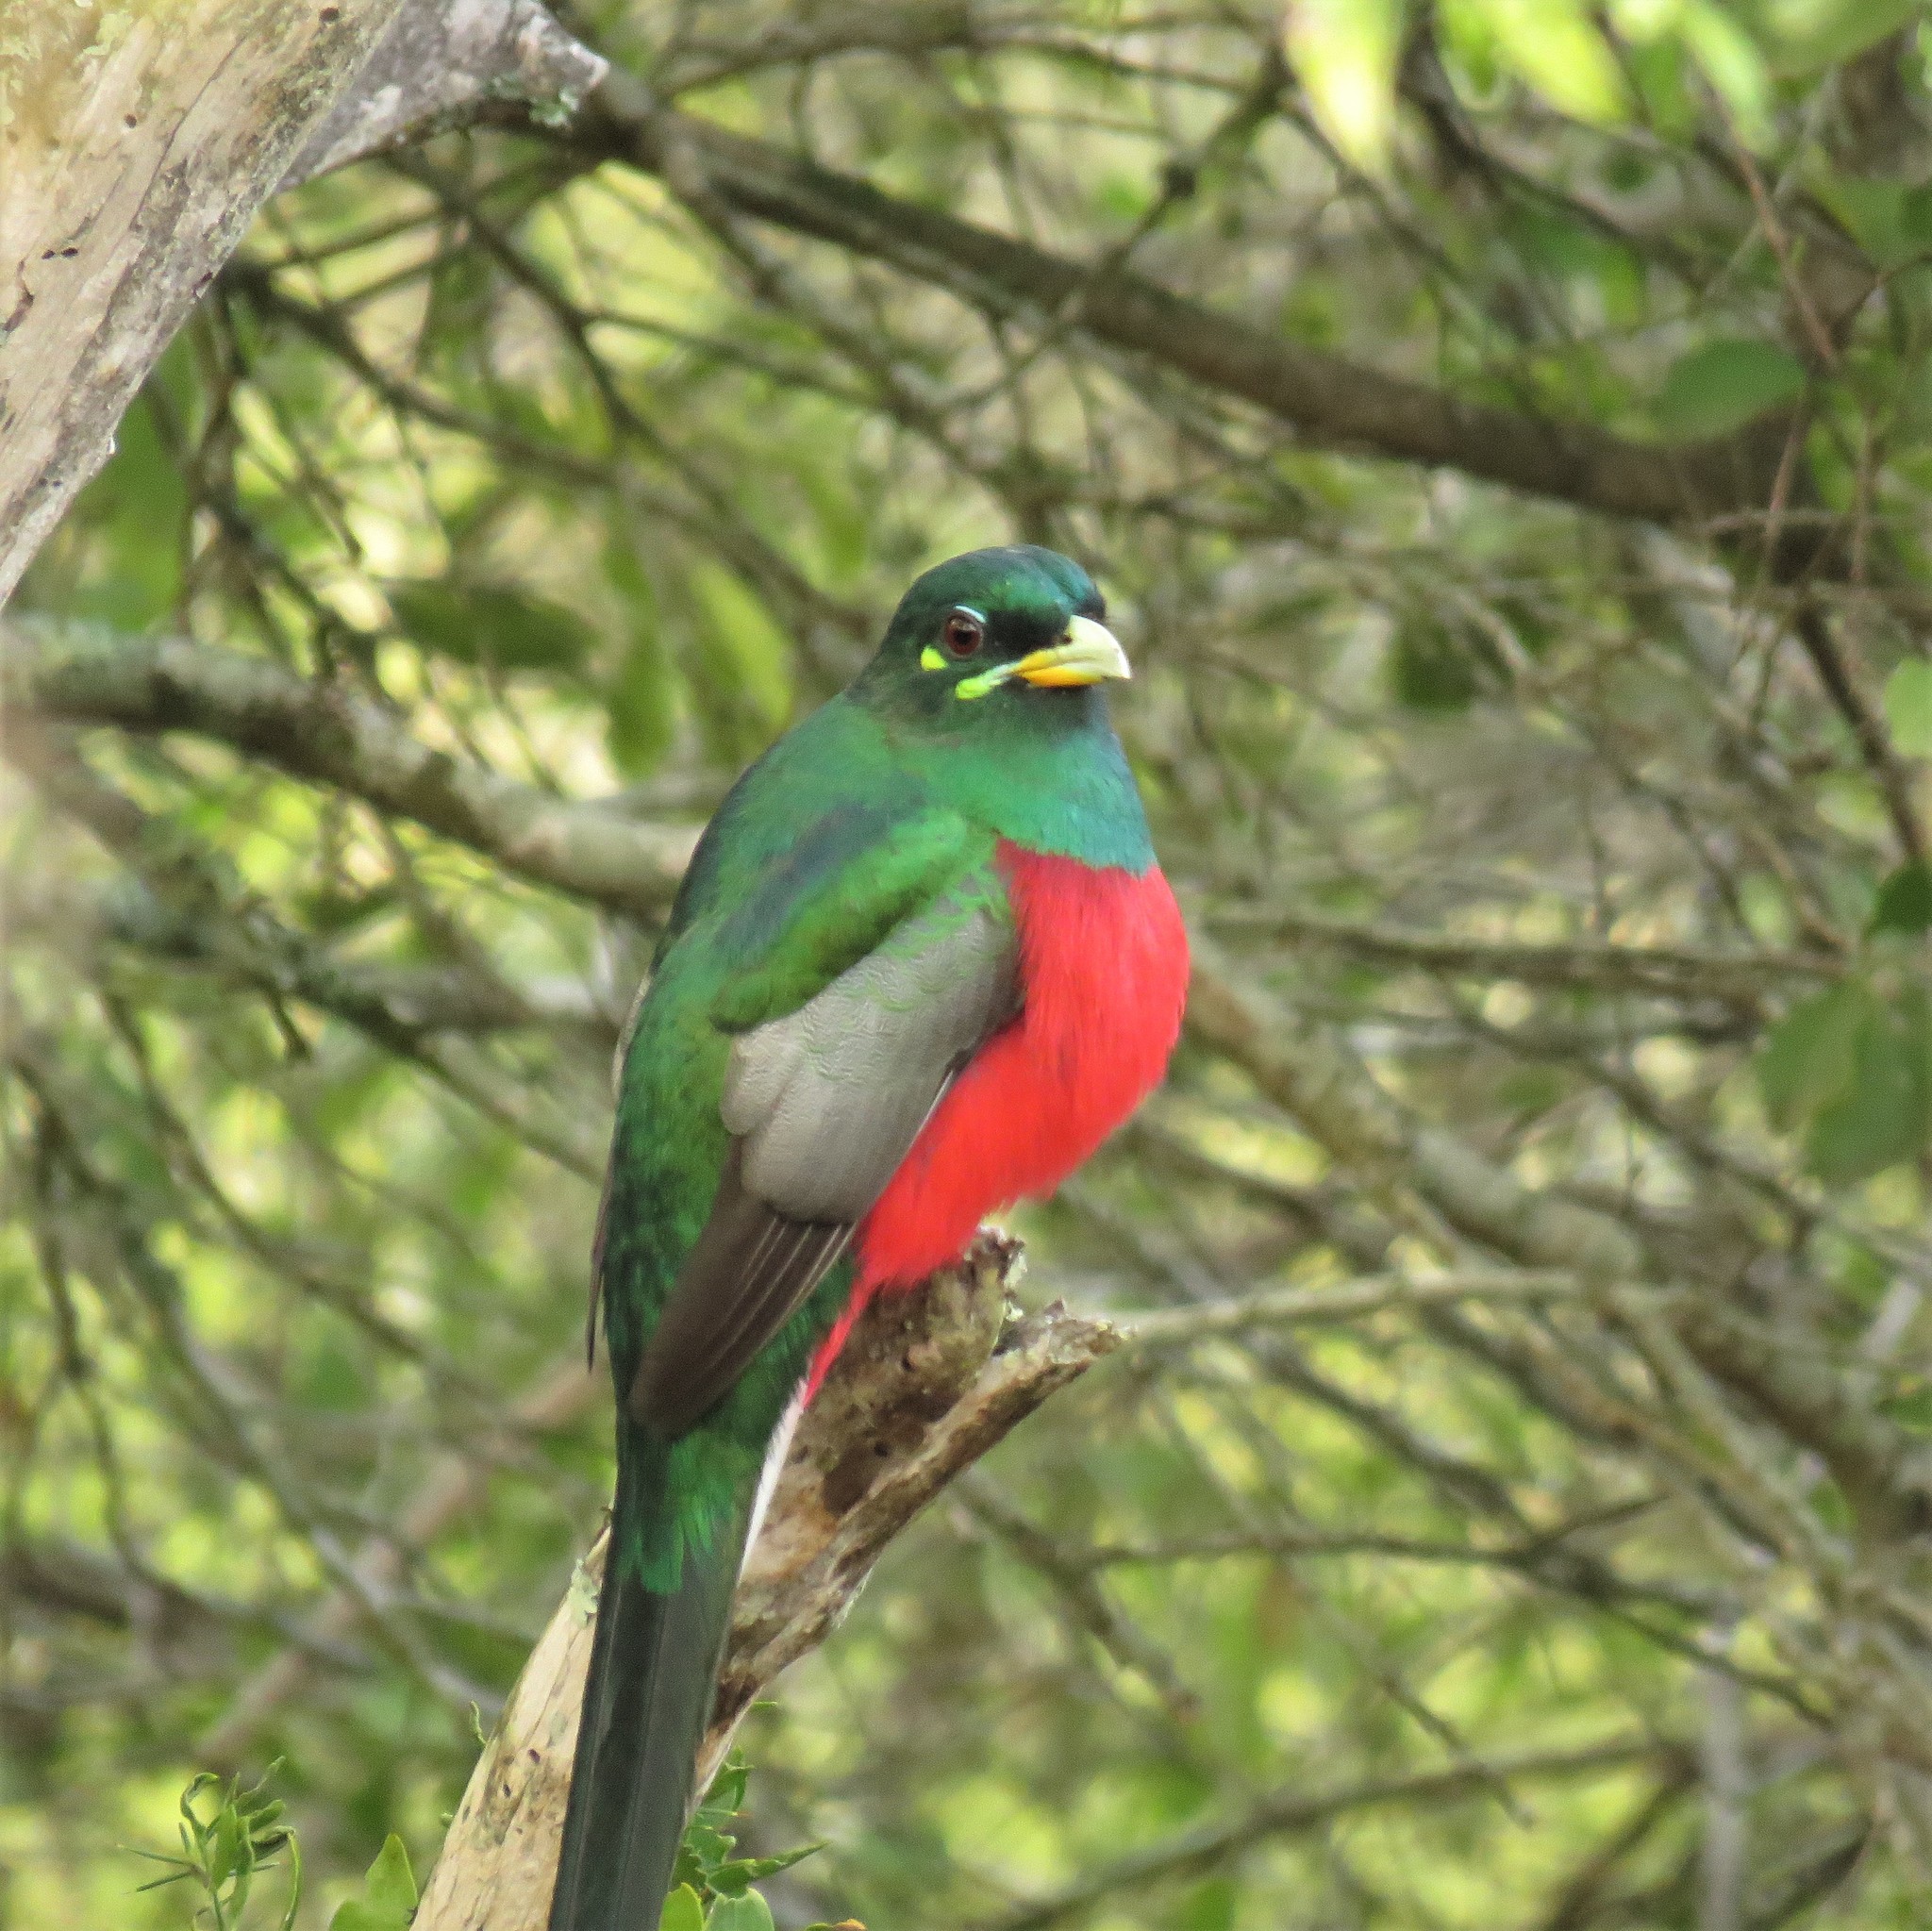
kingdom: Animalia
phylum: Chordata
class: Aves
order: Trogoniformes
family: Trogonidae
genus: Apaloderma
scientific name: Apaloderma narina
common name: Narina trogon
